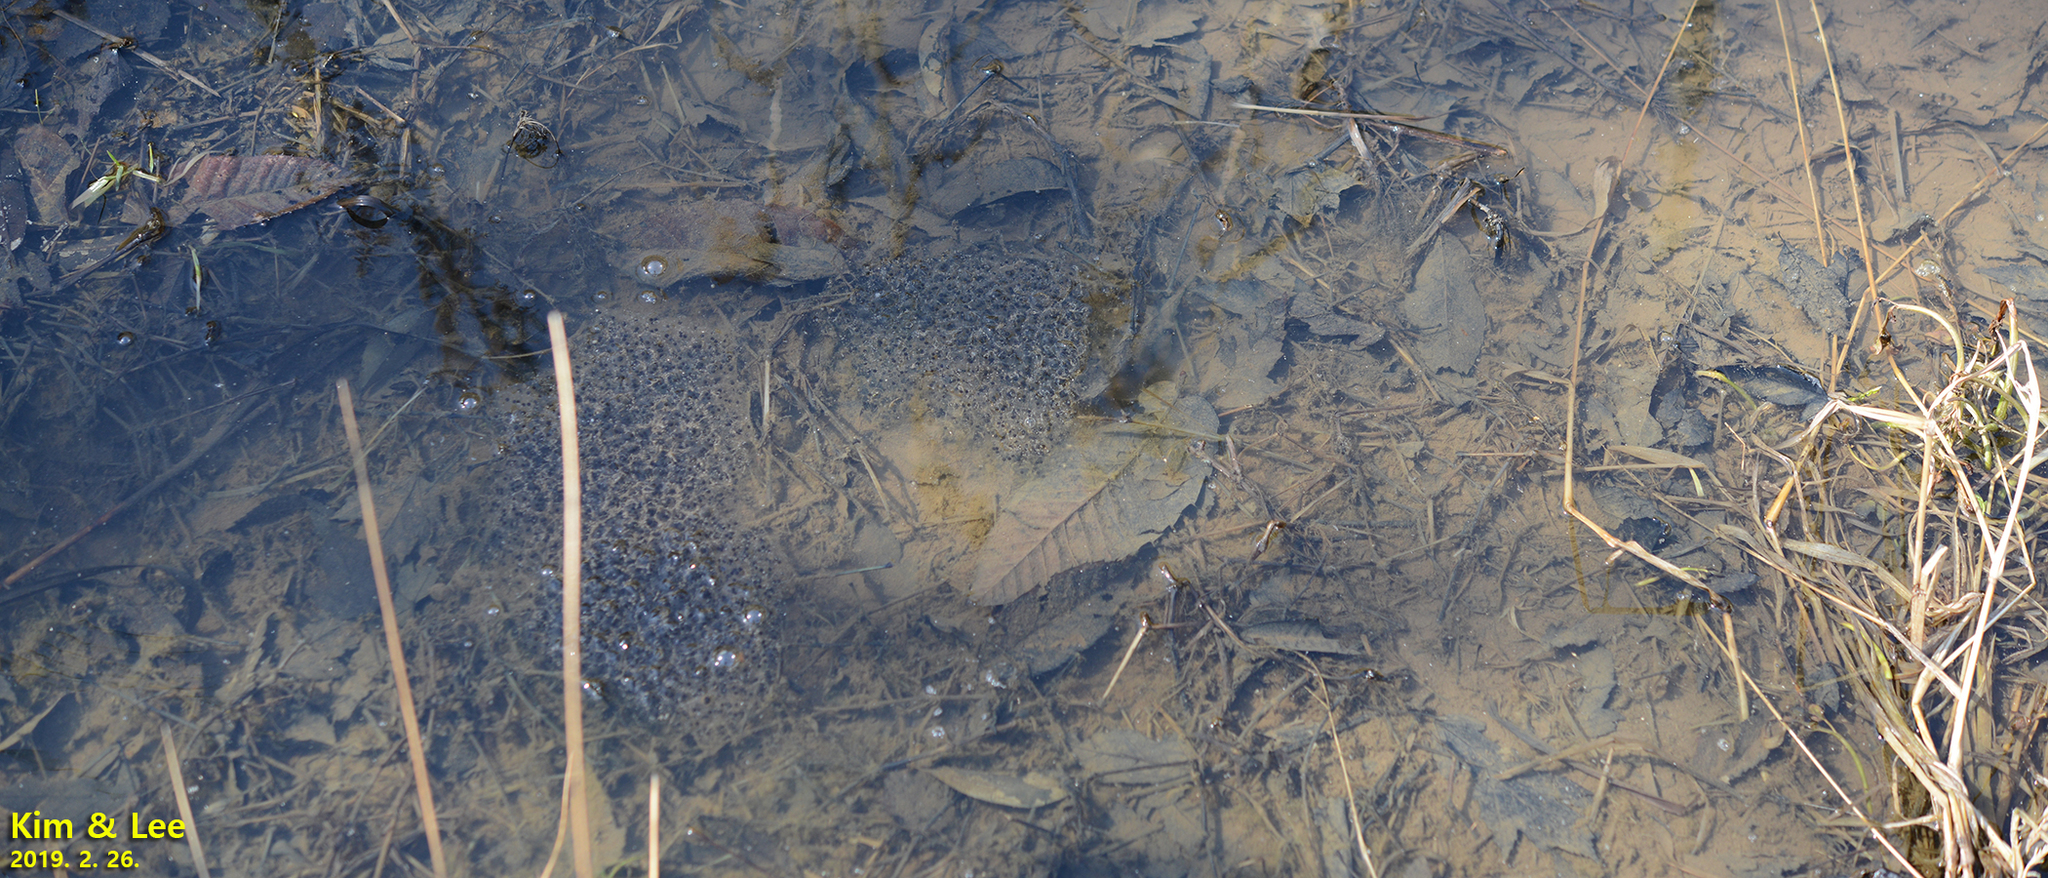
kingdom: Animalia
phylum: Chordata
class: Amphibia
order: Anura
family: Ranidae
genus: Rana
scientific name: Rana uenoi
